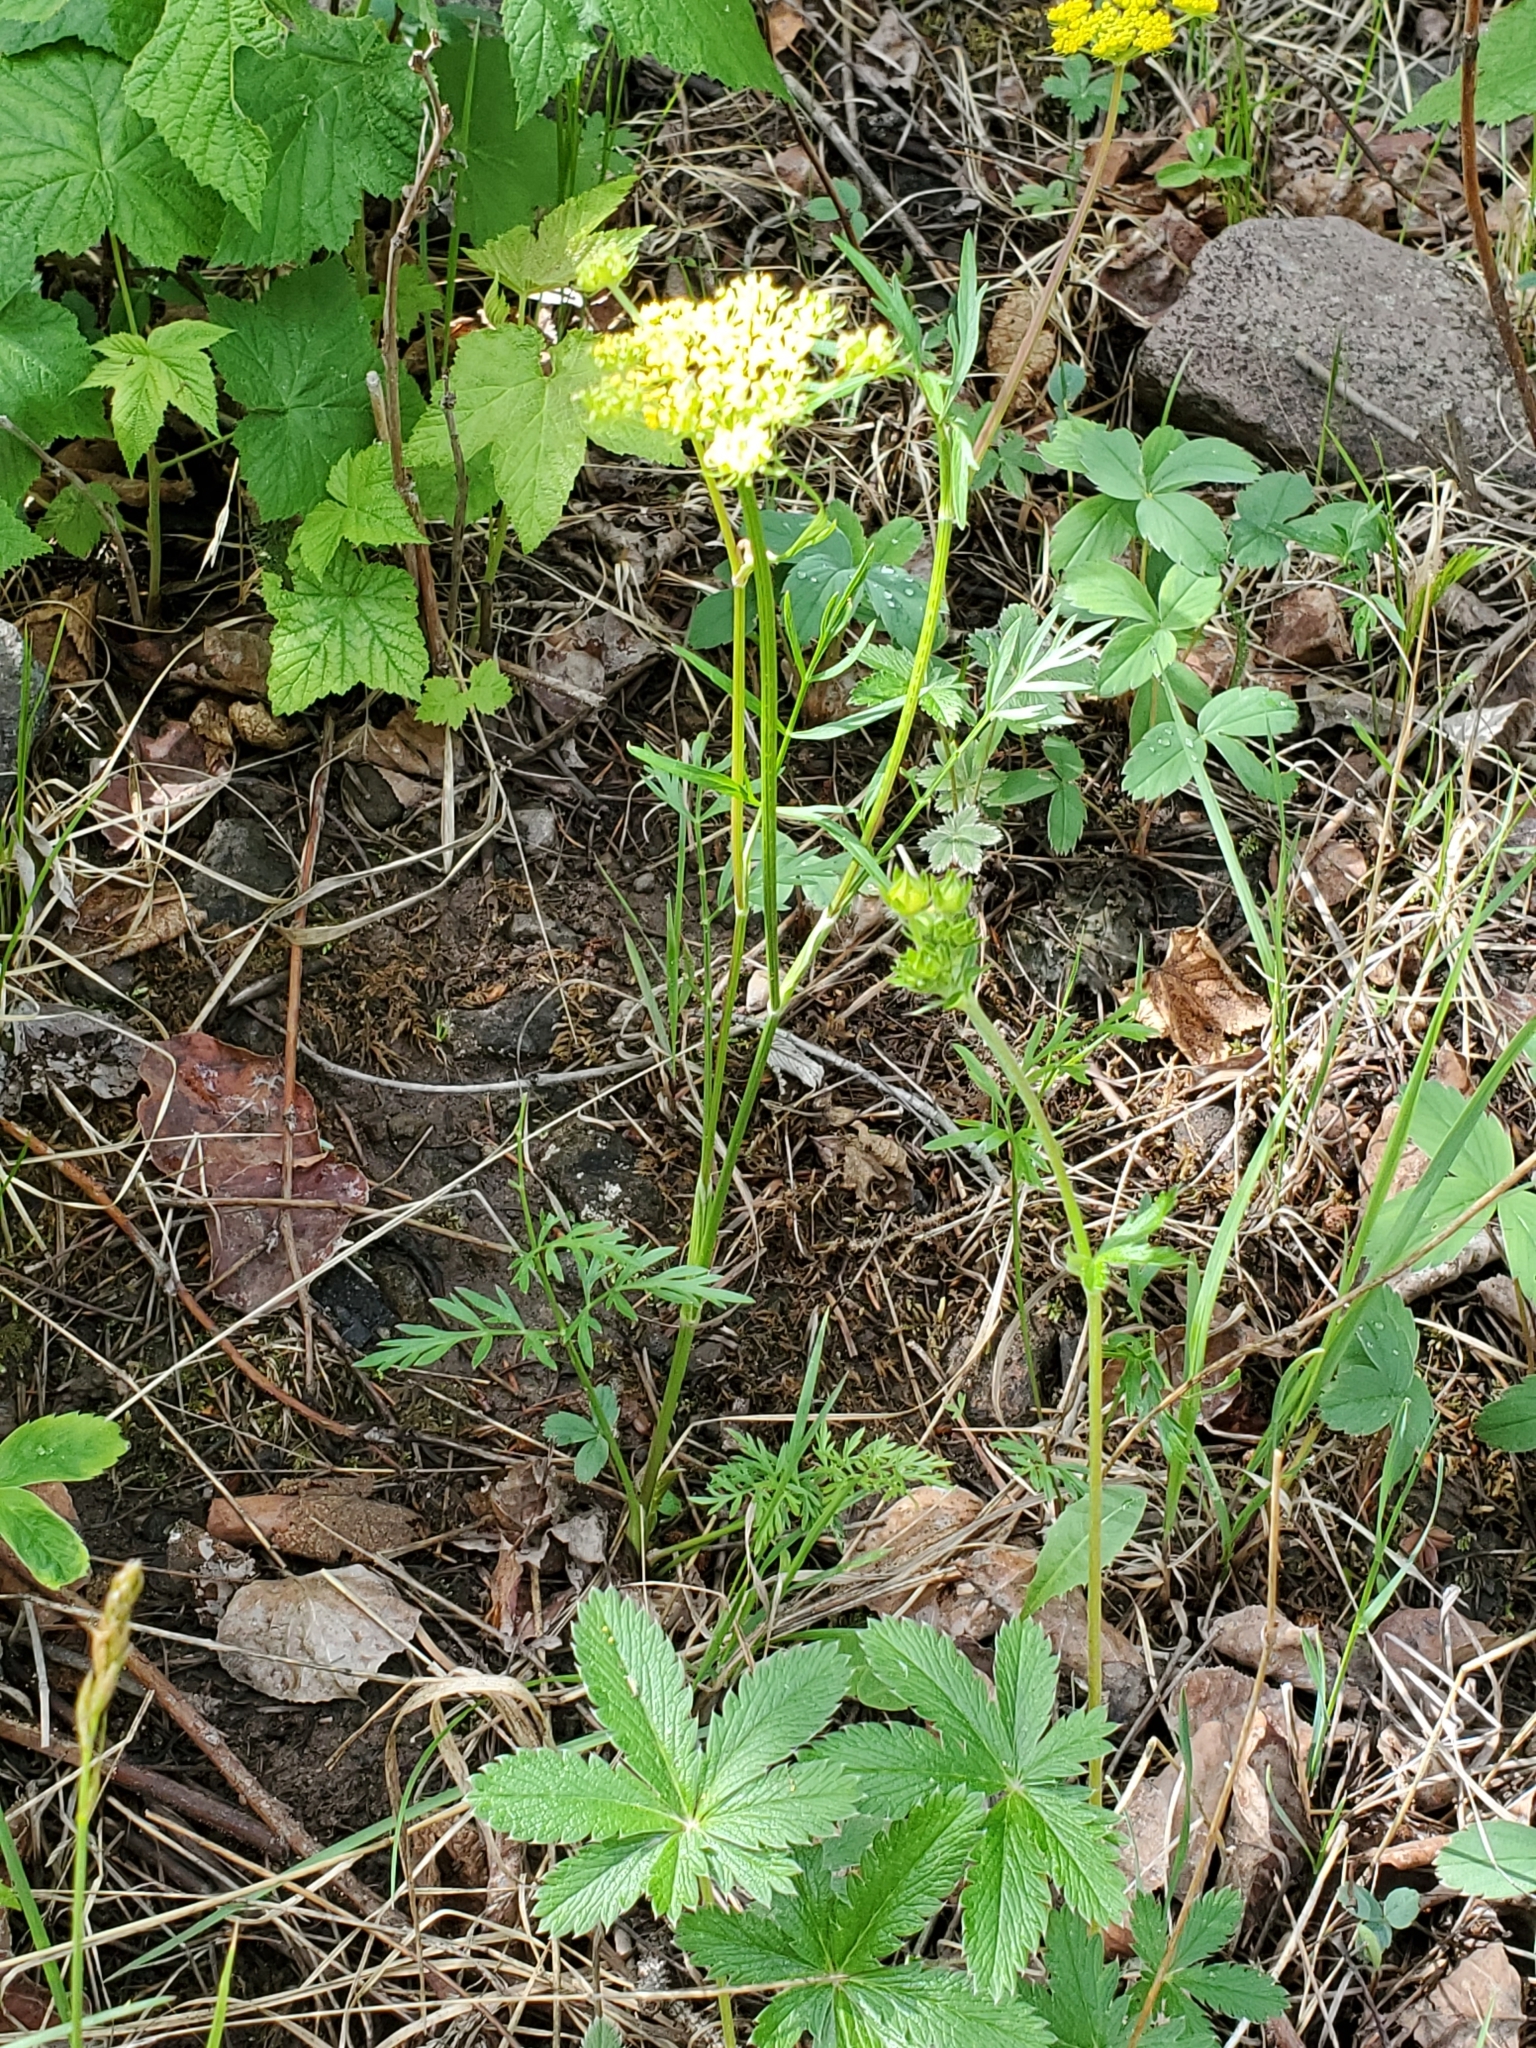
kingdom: Plantae
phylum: Tracheophyta
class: Magnoliopsida
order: Apiales
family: Apiaceae
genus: Cymopterus
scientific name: Cymopterus lemmonii
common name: Lemmon's spring-parsley
